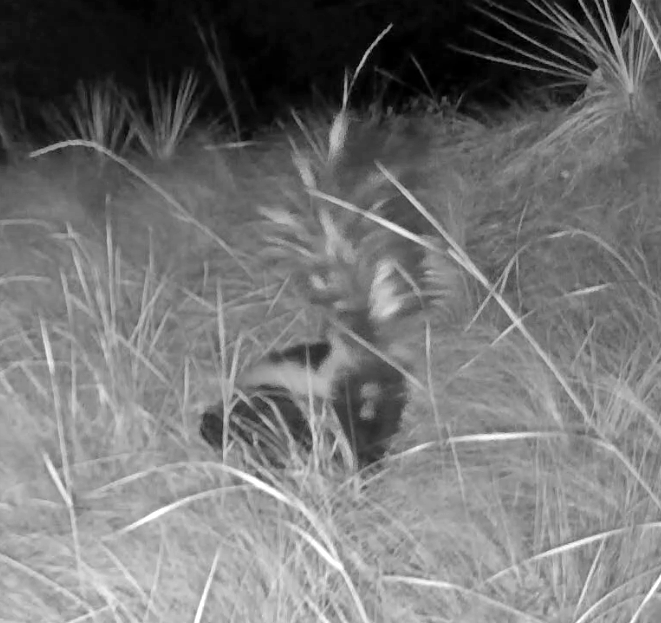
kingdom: Animalia
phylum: Chordata
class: Mammalia
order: Carnivora
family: Mephitidae
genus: Mephitis
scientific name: Mephitis mephitis
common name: Striped skunk
